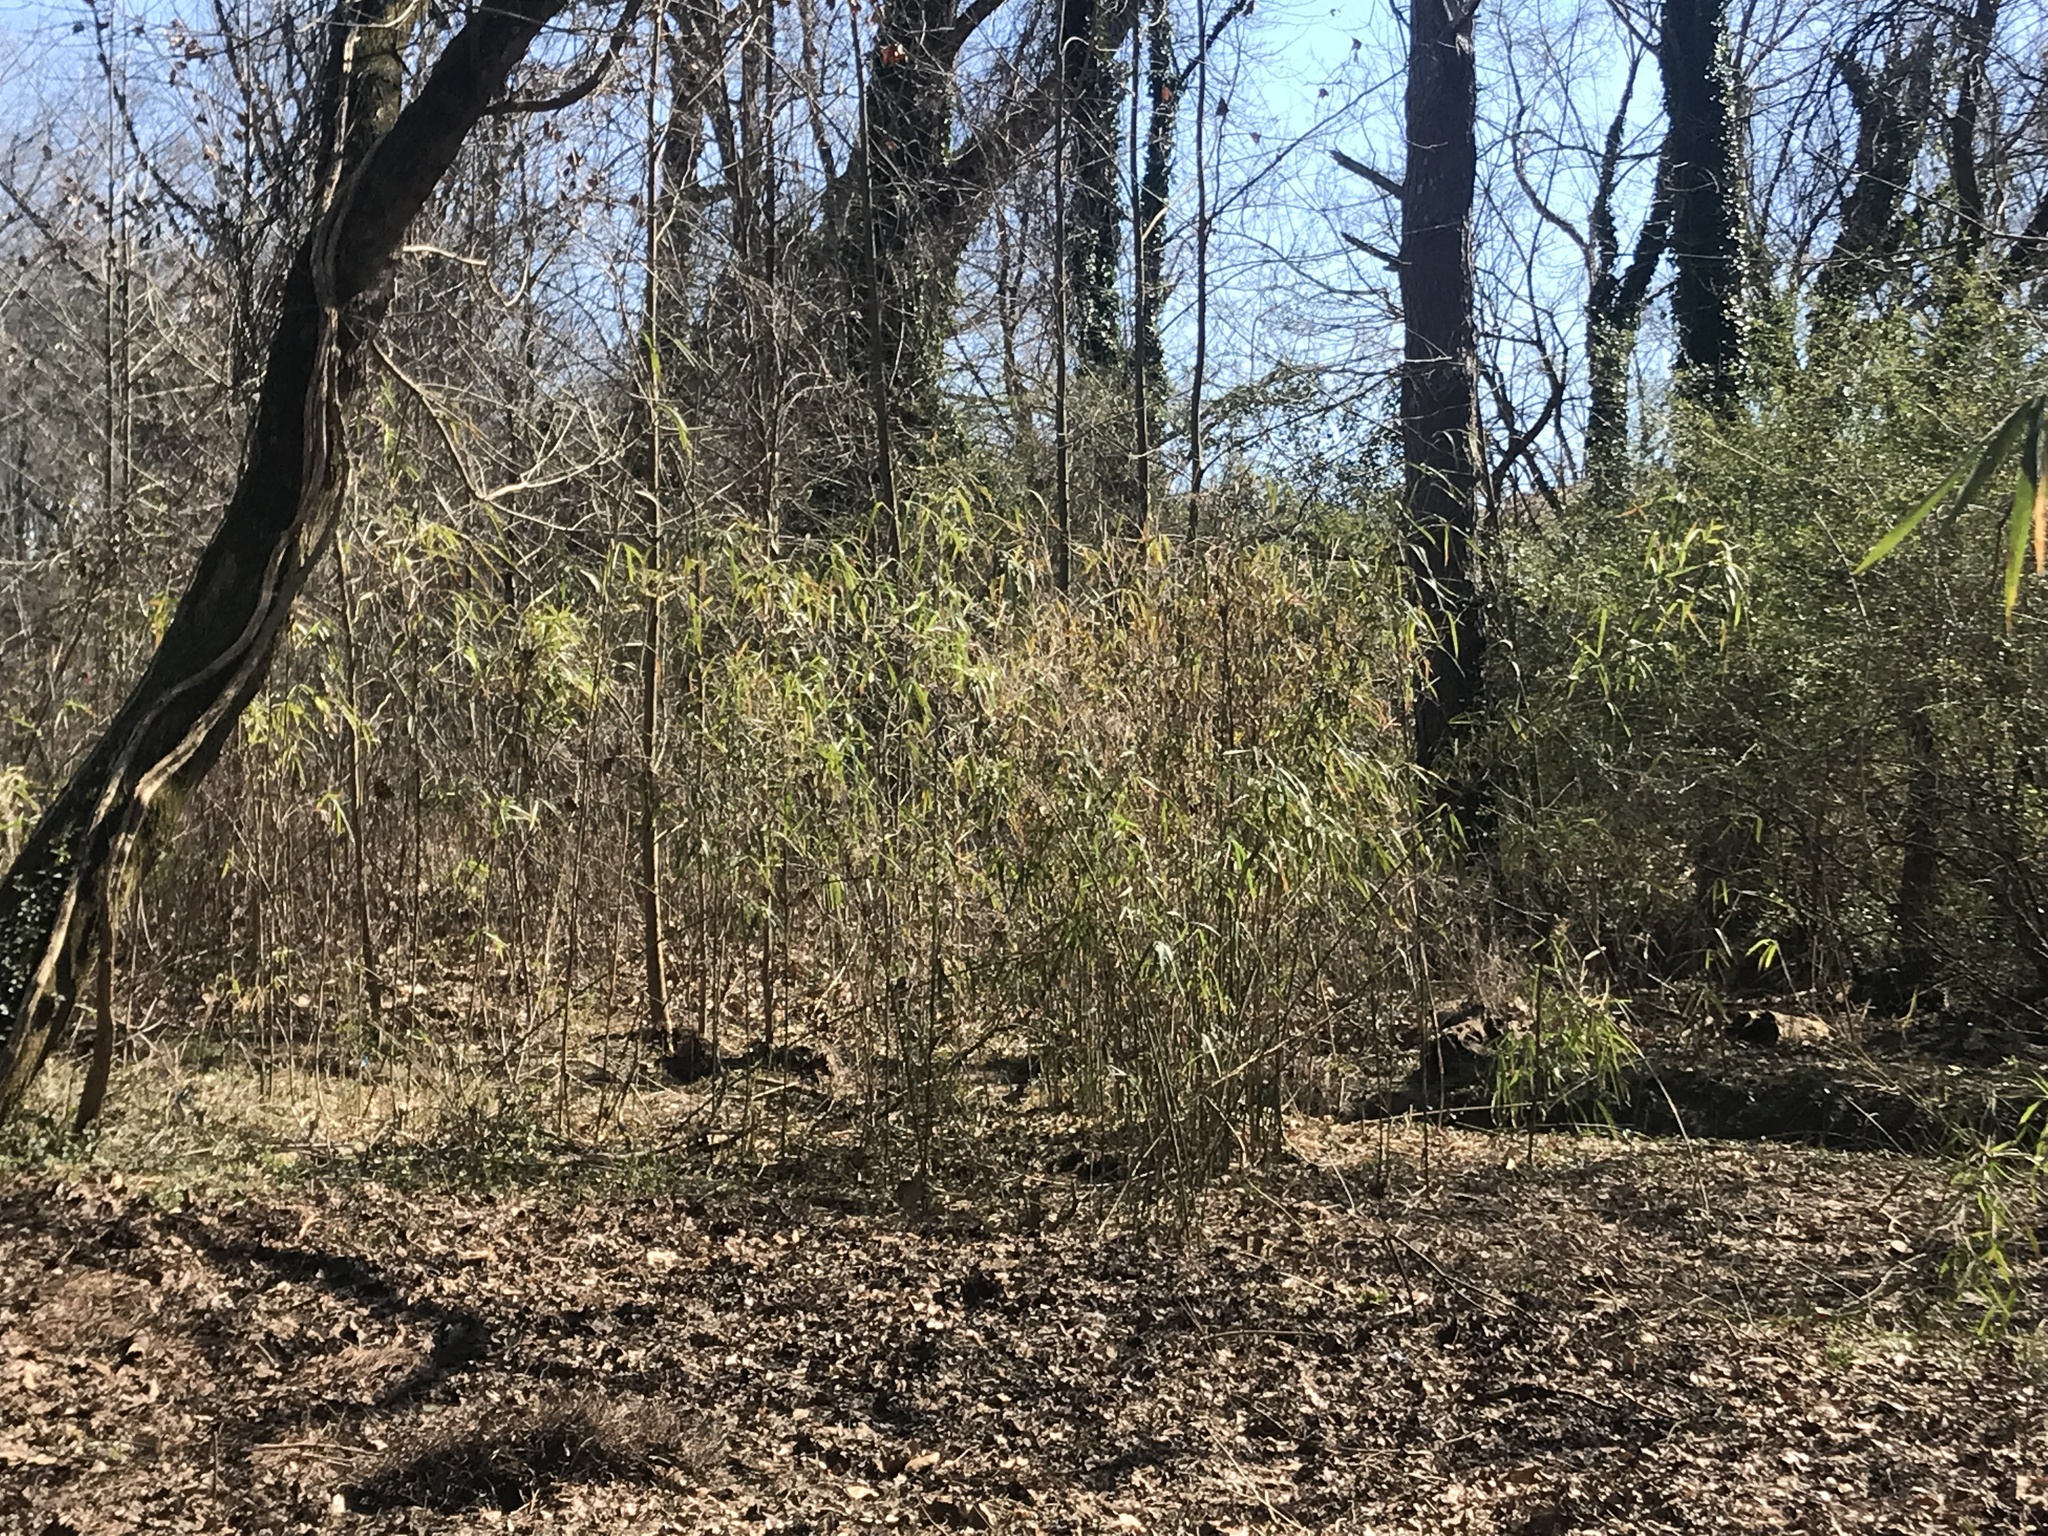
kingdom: Plantae
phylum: Tracheophyta
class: Liliopsida
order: Poales
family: Poaceae
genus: Arundinaria
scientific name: Arundinaria gigantea
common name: Giant cane
